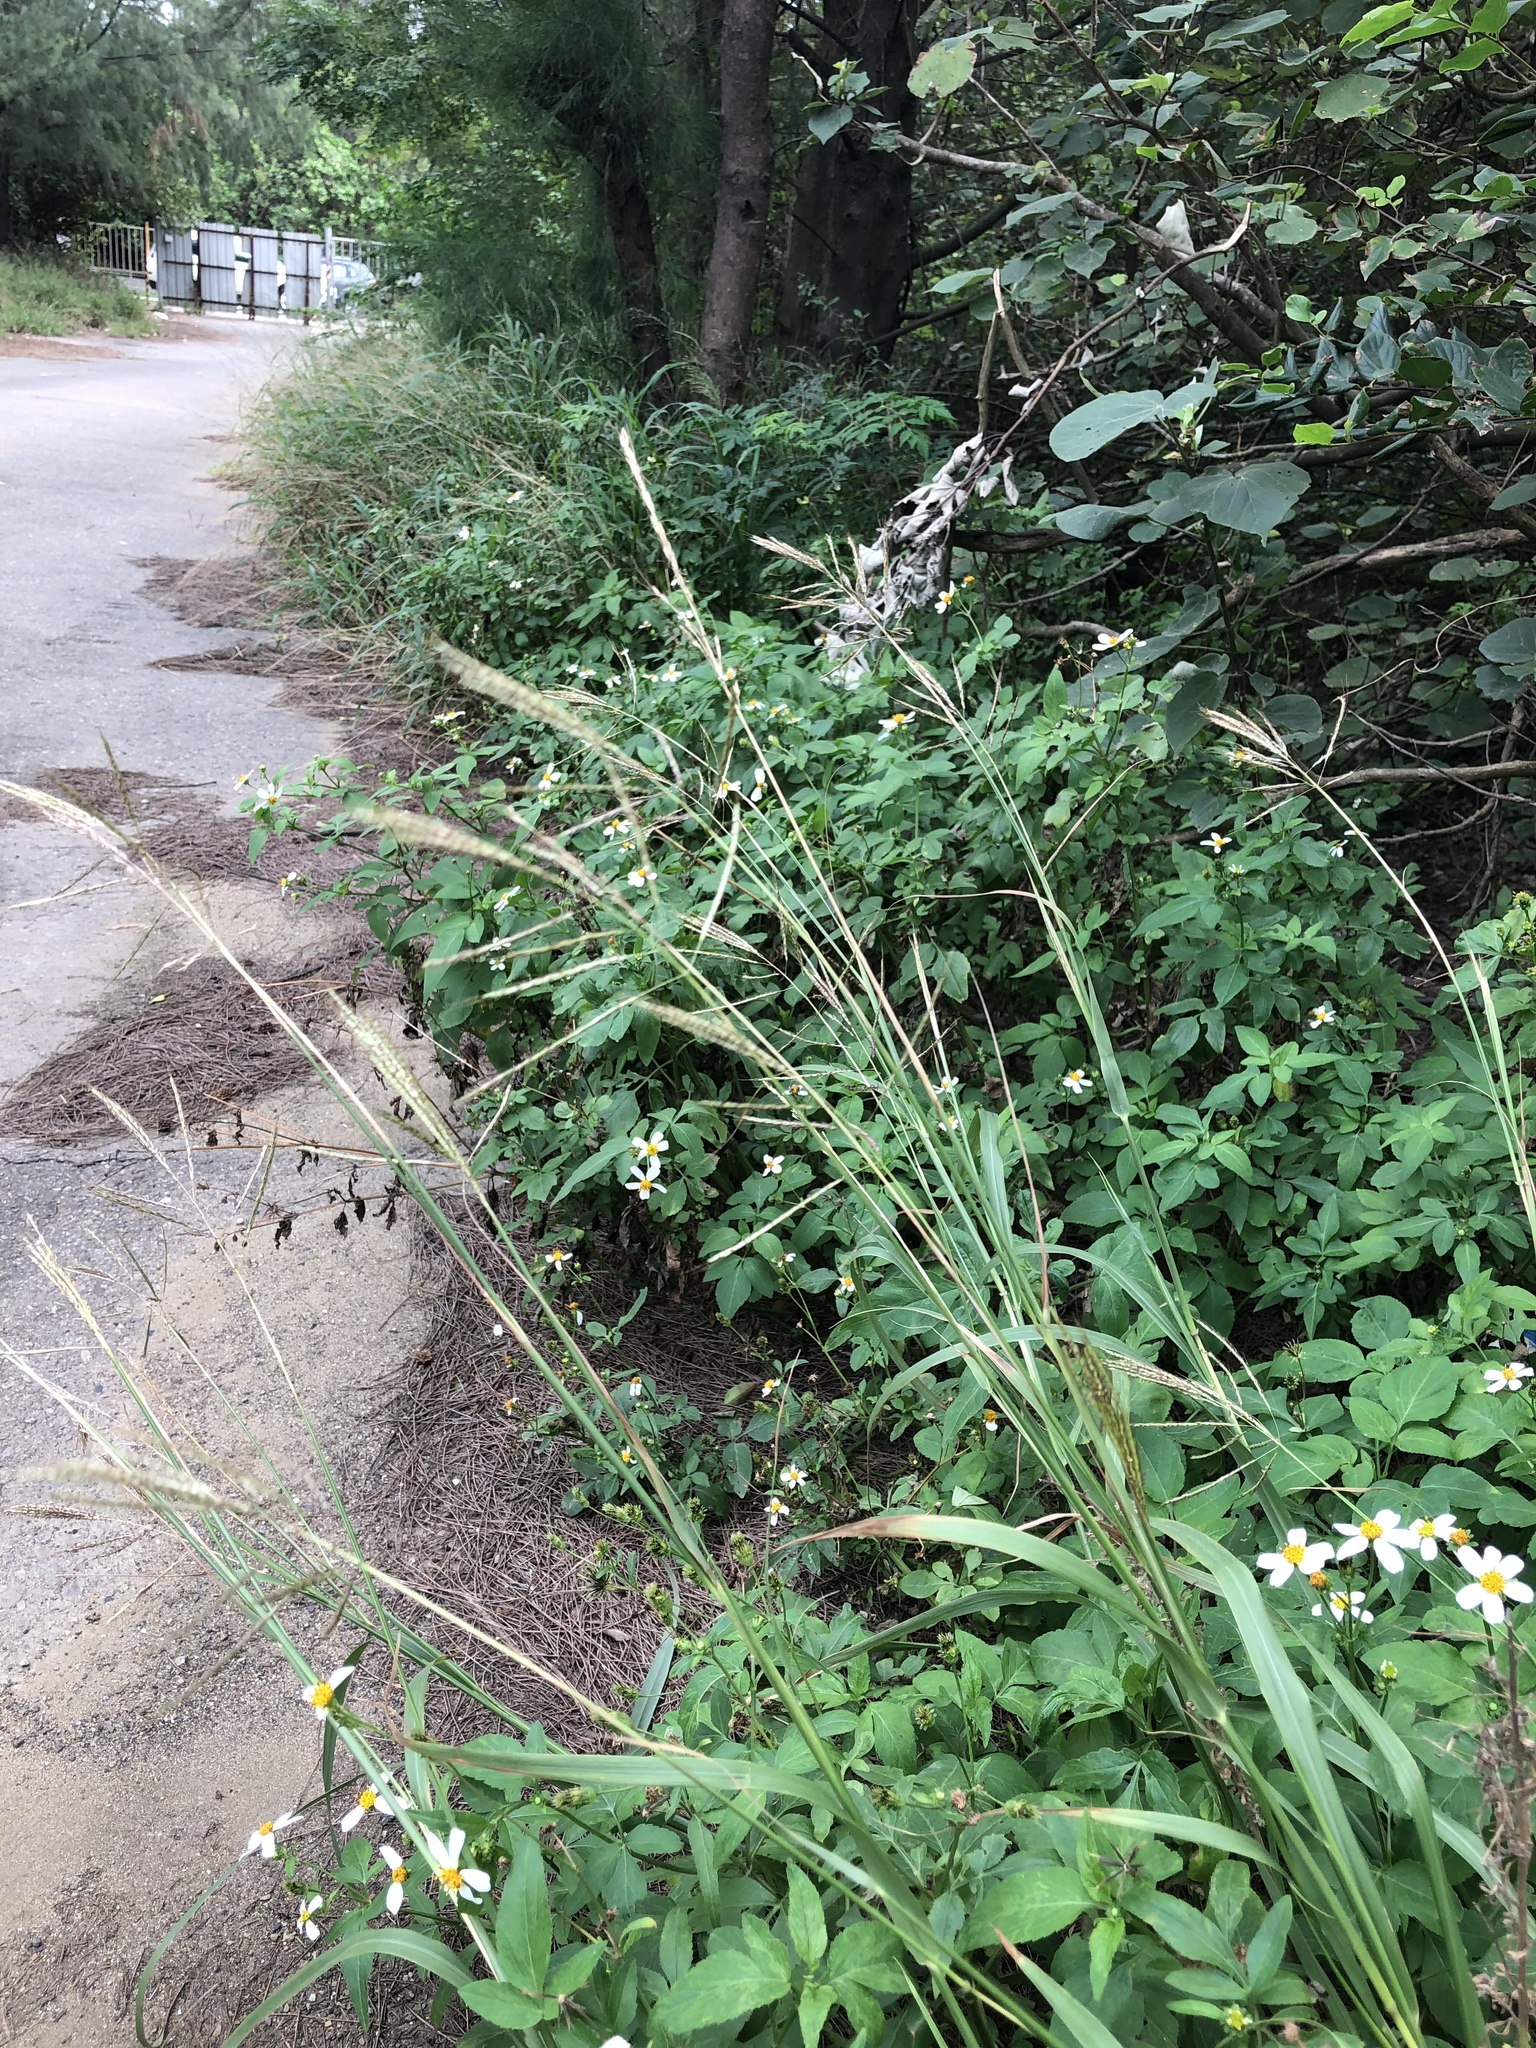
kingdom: Plantae
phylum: Tracheophyta
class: Liliopsida
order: Poales
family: Poaceae
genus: Bothriochloa
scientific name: Bothriochloa bladhii
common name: Caucasian bluestem
